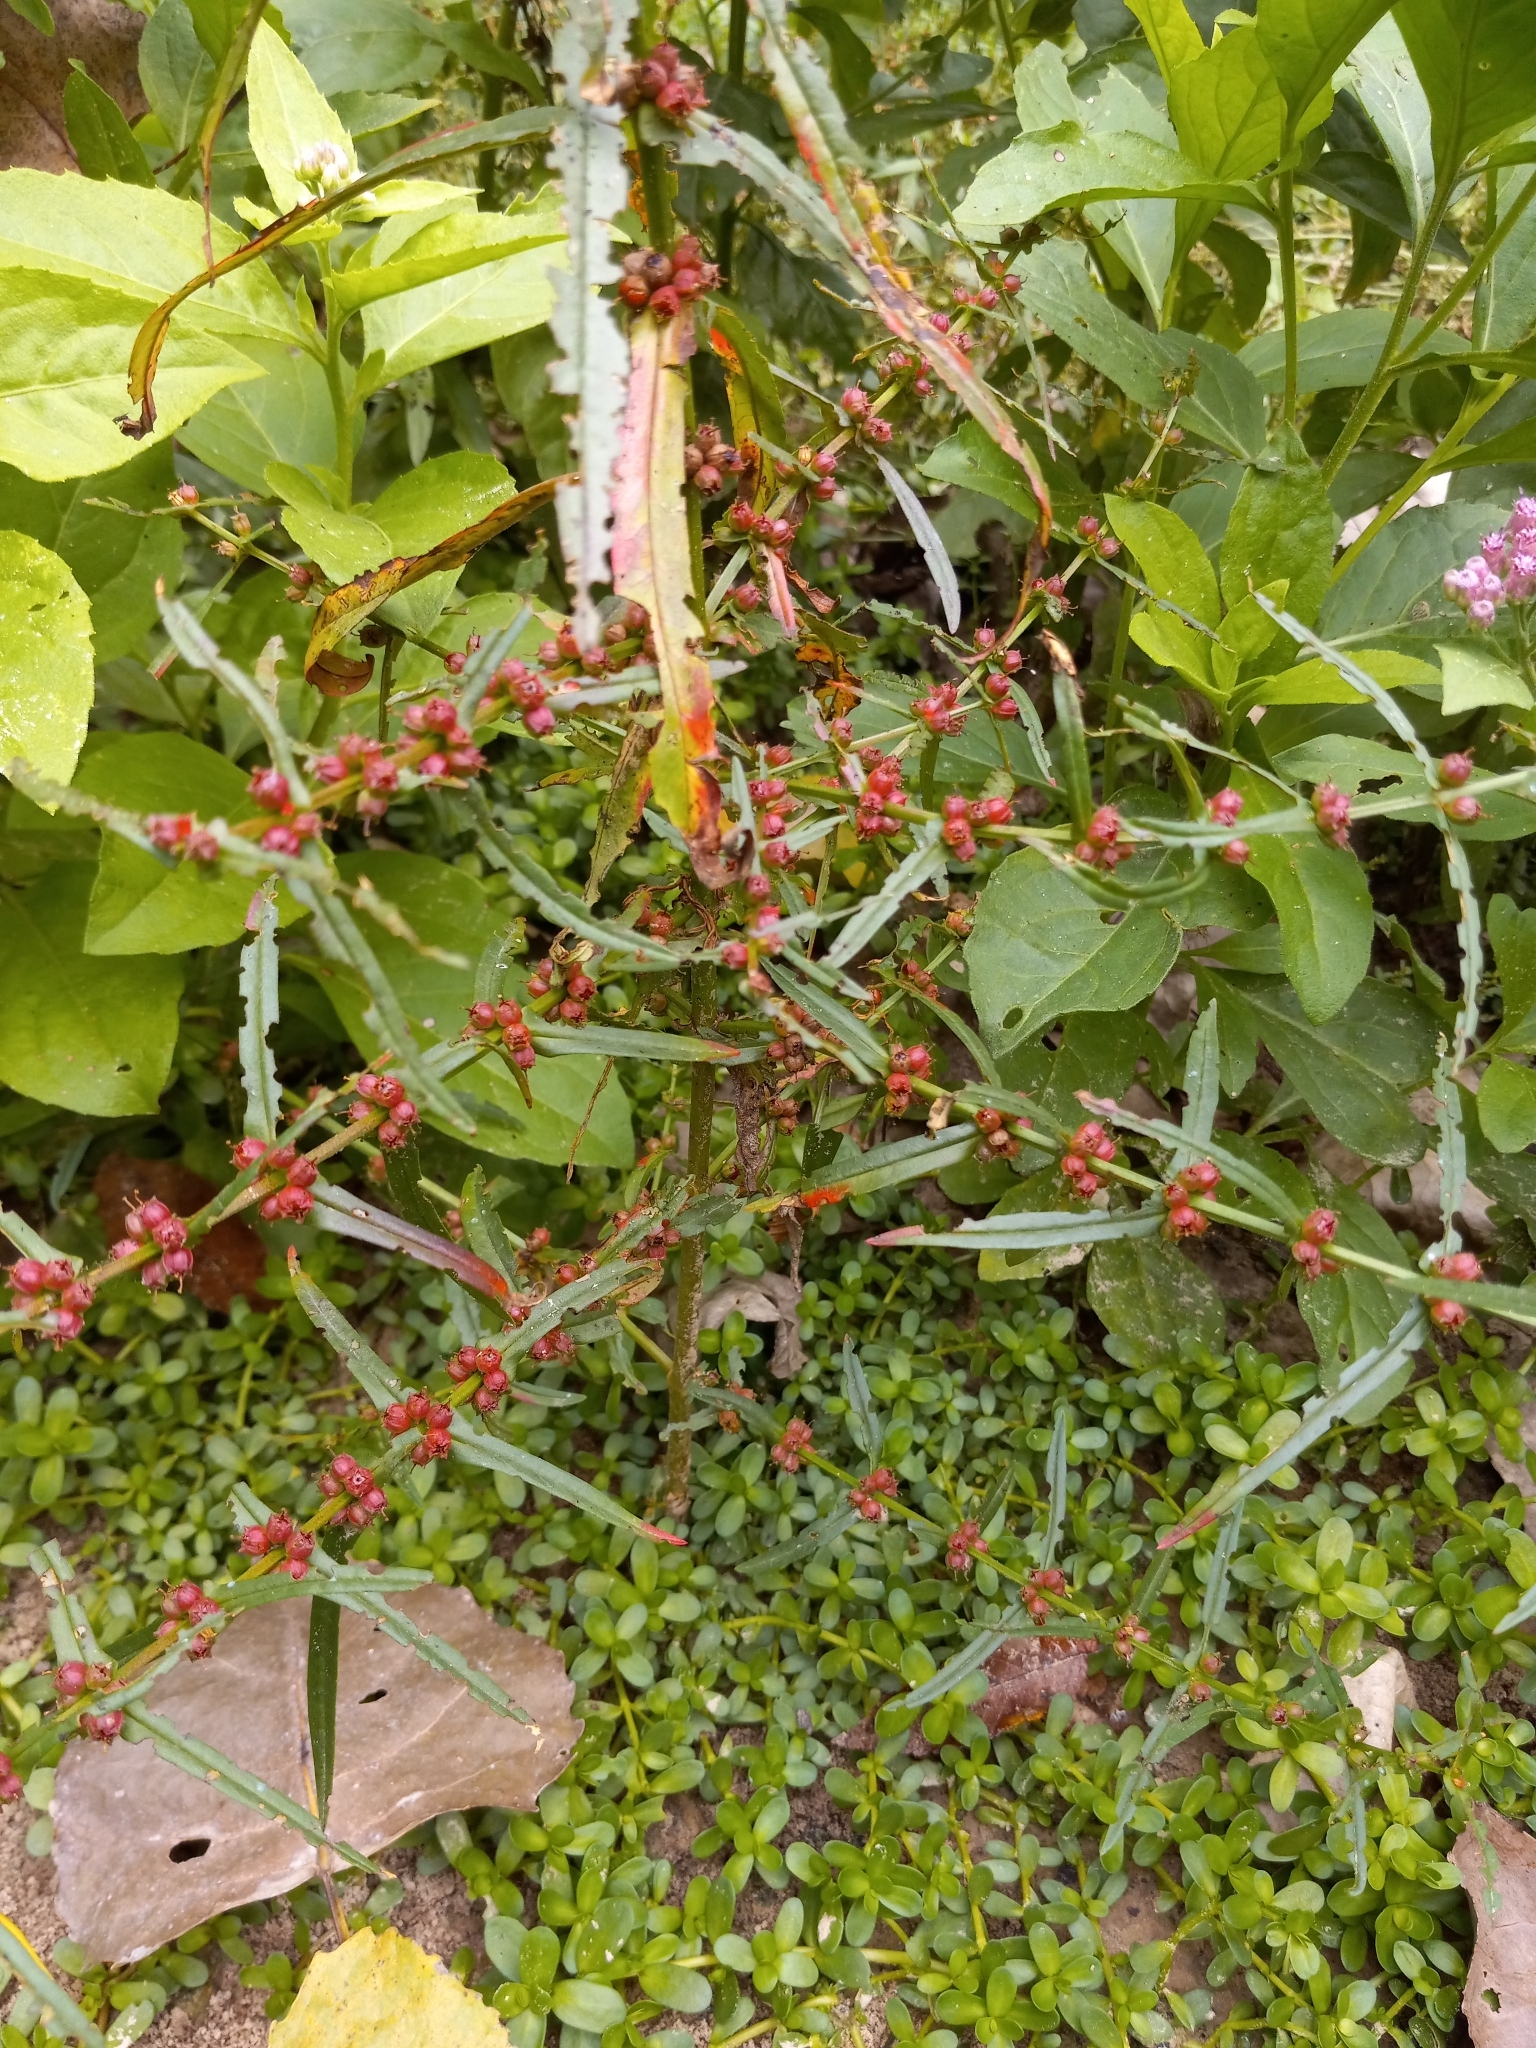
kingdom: Plantae
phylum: Tracheophyta
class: Magnoliopsida
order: Myrtales
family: Lythraceae
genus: Ammannia
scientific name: Ammannia coccinea
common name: Valley redstem
